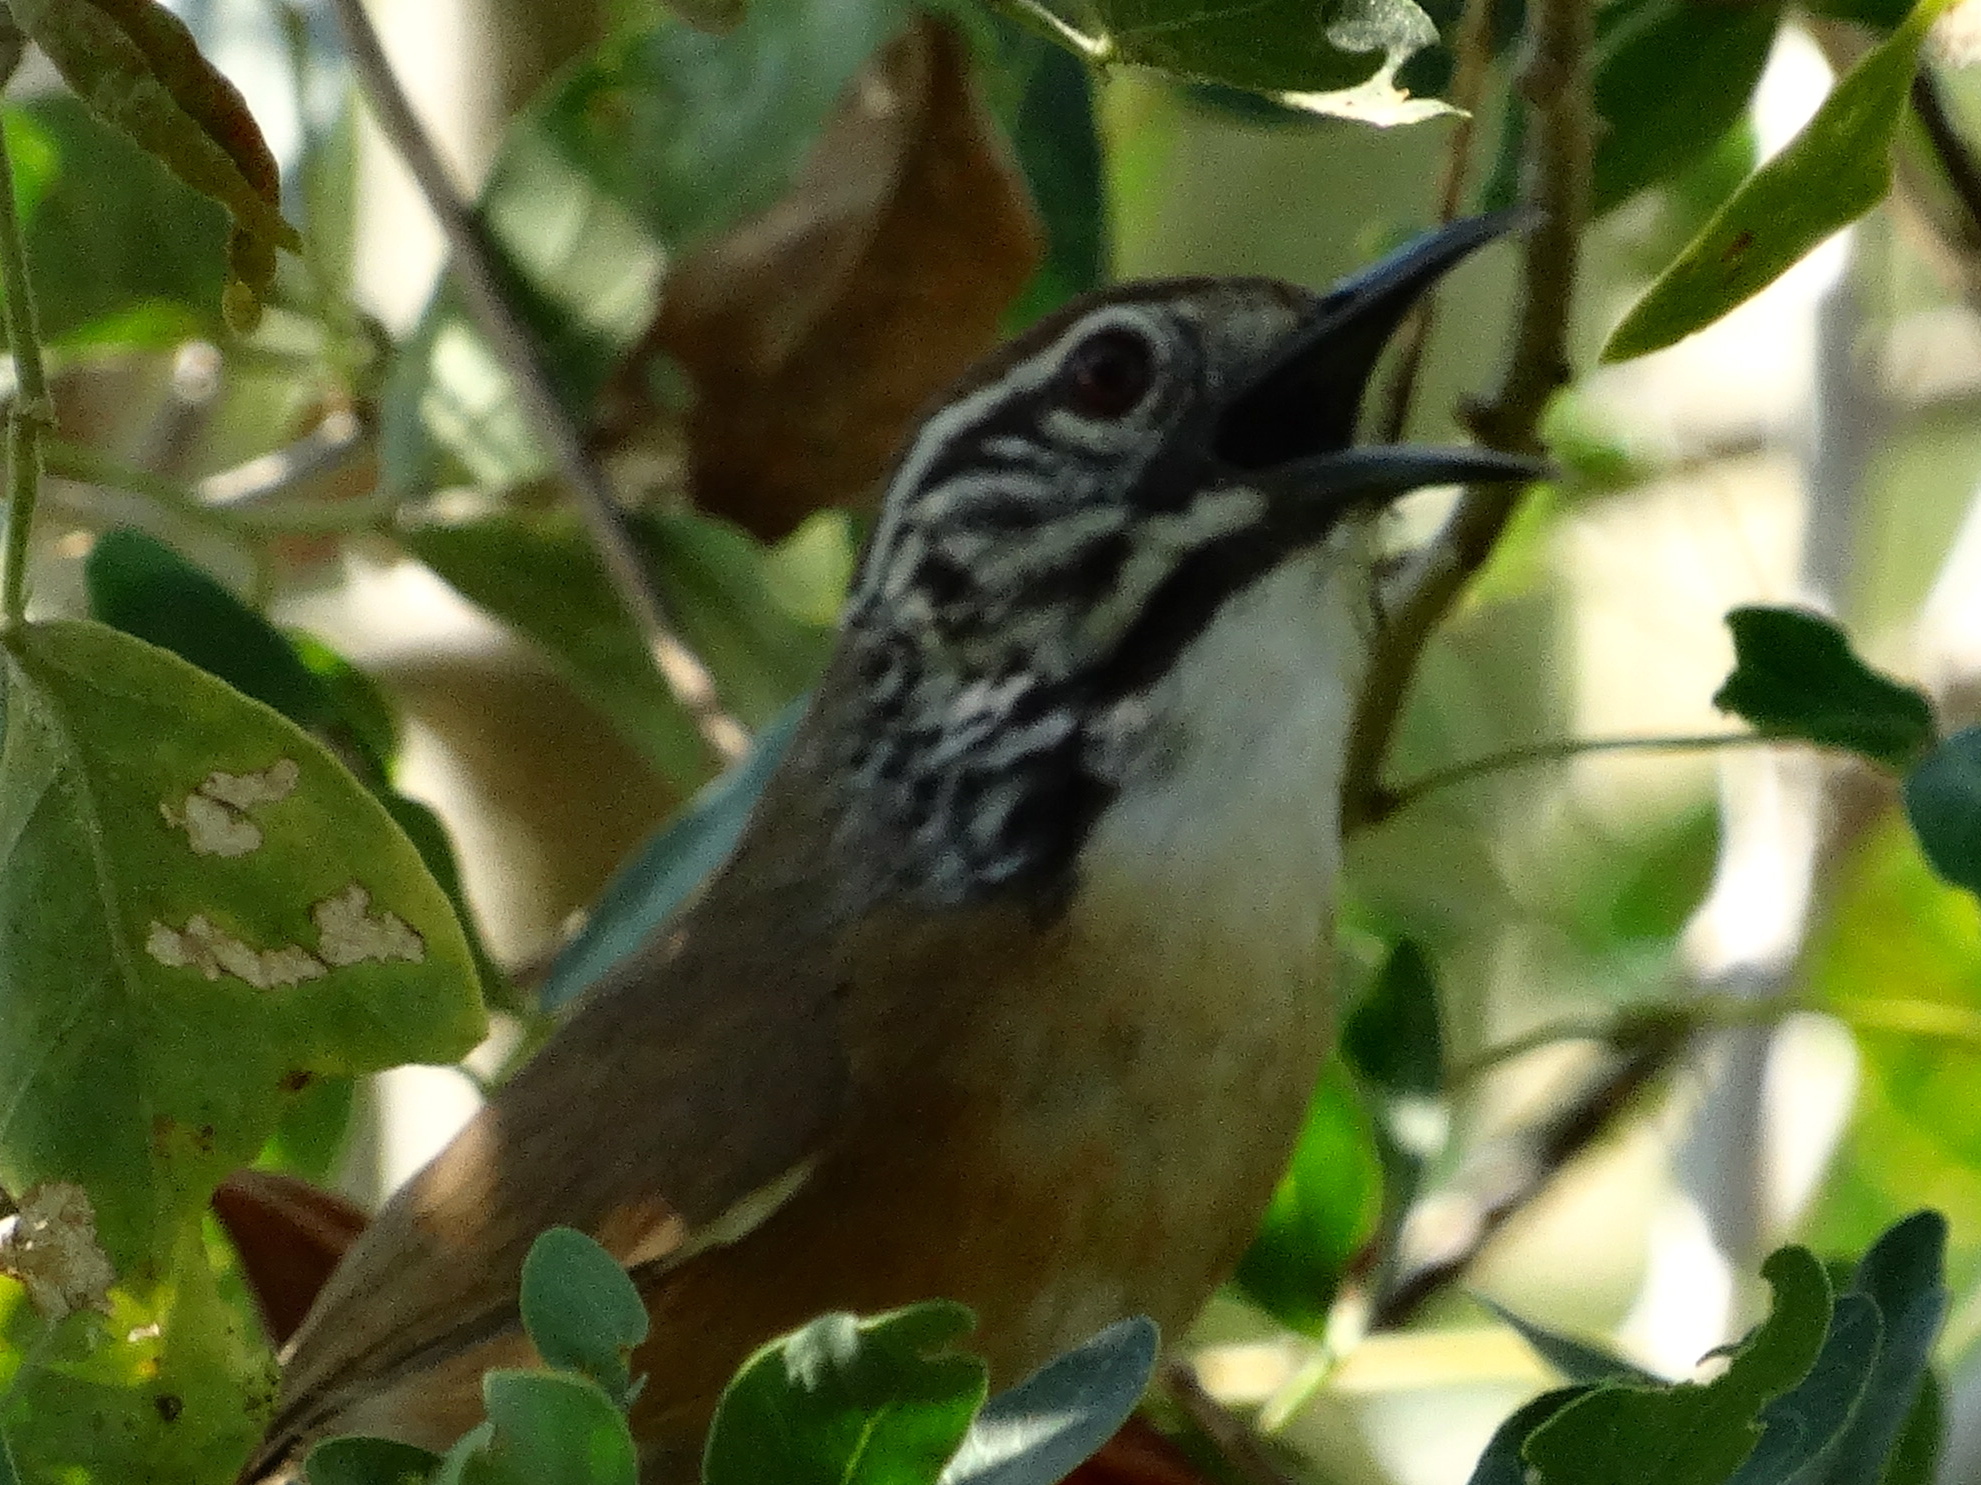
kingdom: Animalia
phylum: Chordata
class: Aves
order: Passeriformes
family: Troglodytidae
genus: Pheugopedius
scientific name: Pheugopedius felix
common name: Happy wren
